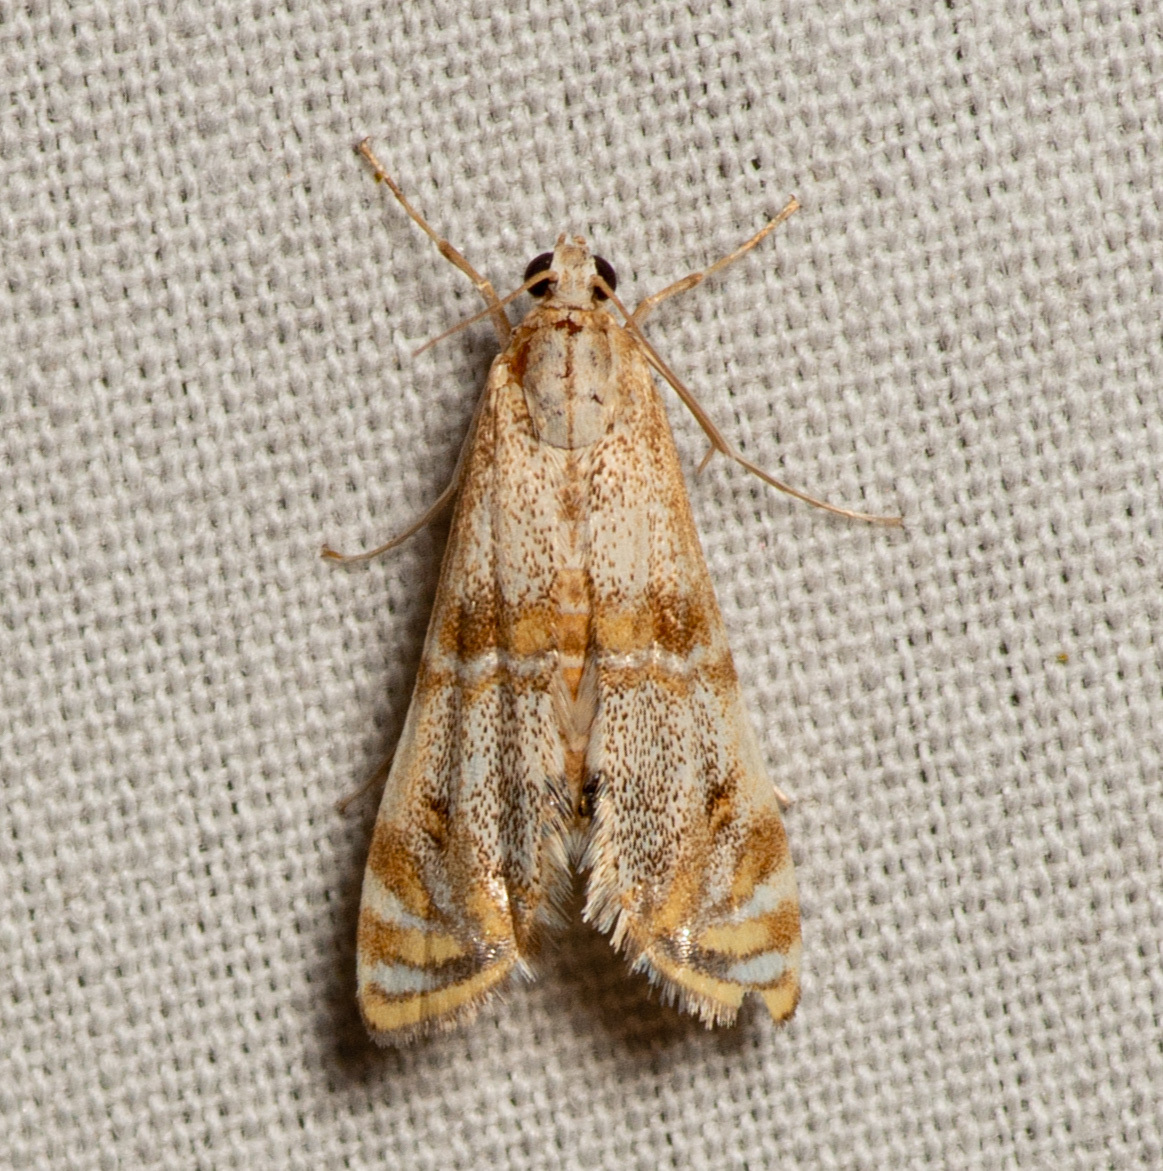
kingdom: Animalia
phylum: Arthropoda
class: Insecta
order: Lepidoptera
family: Crambidae
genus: Petrophila
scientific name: Petrophila bifascialis
